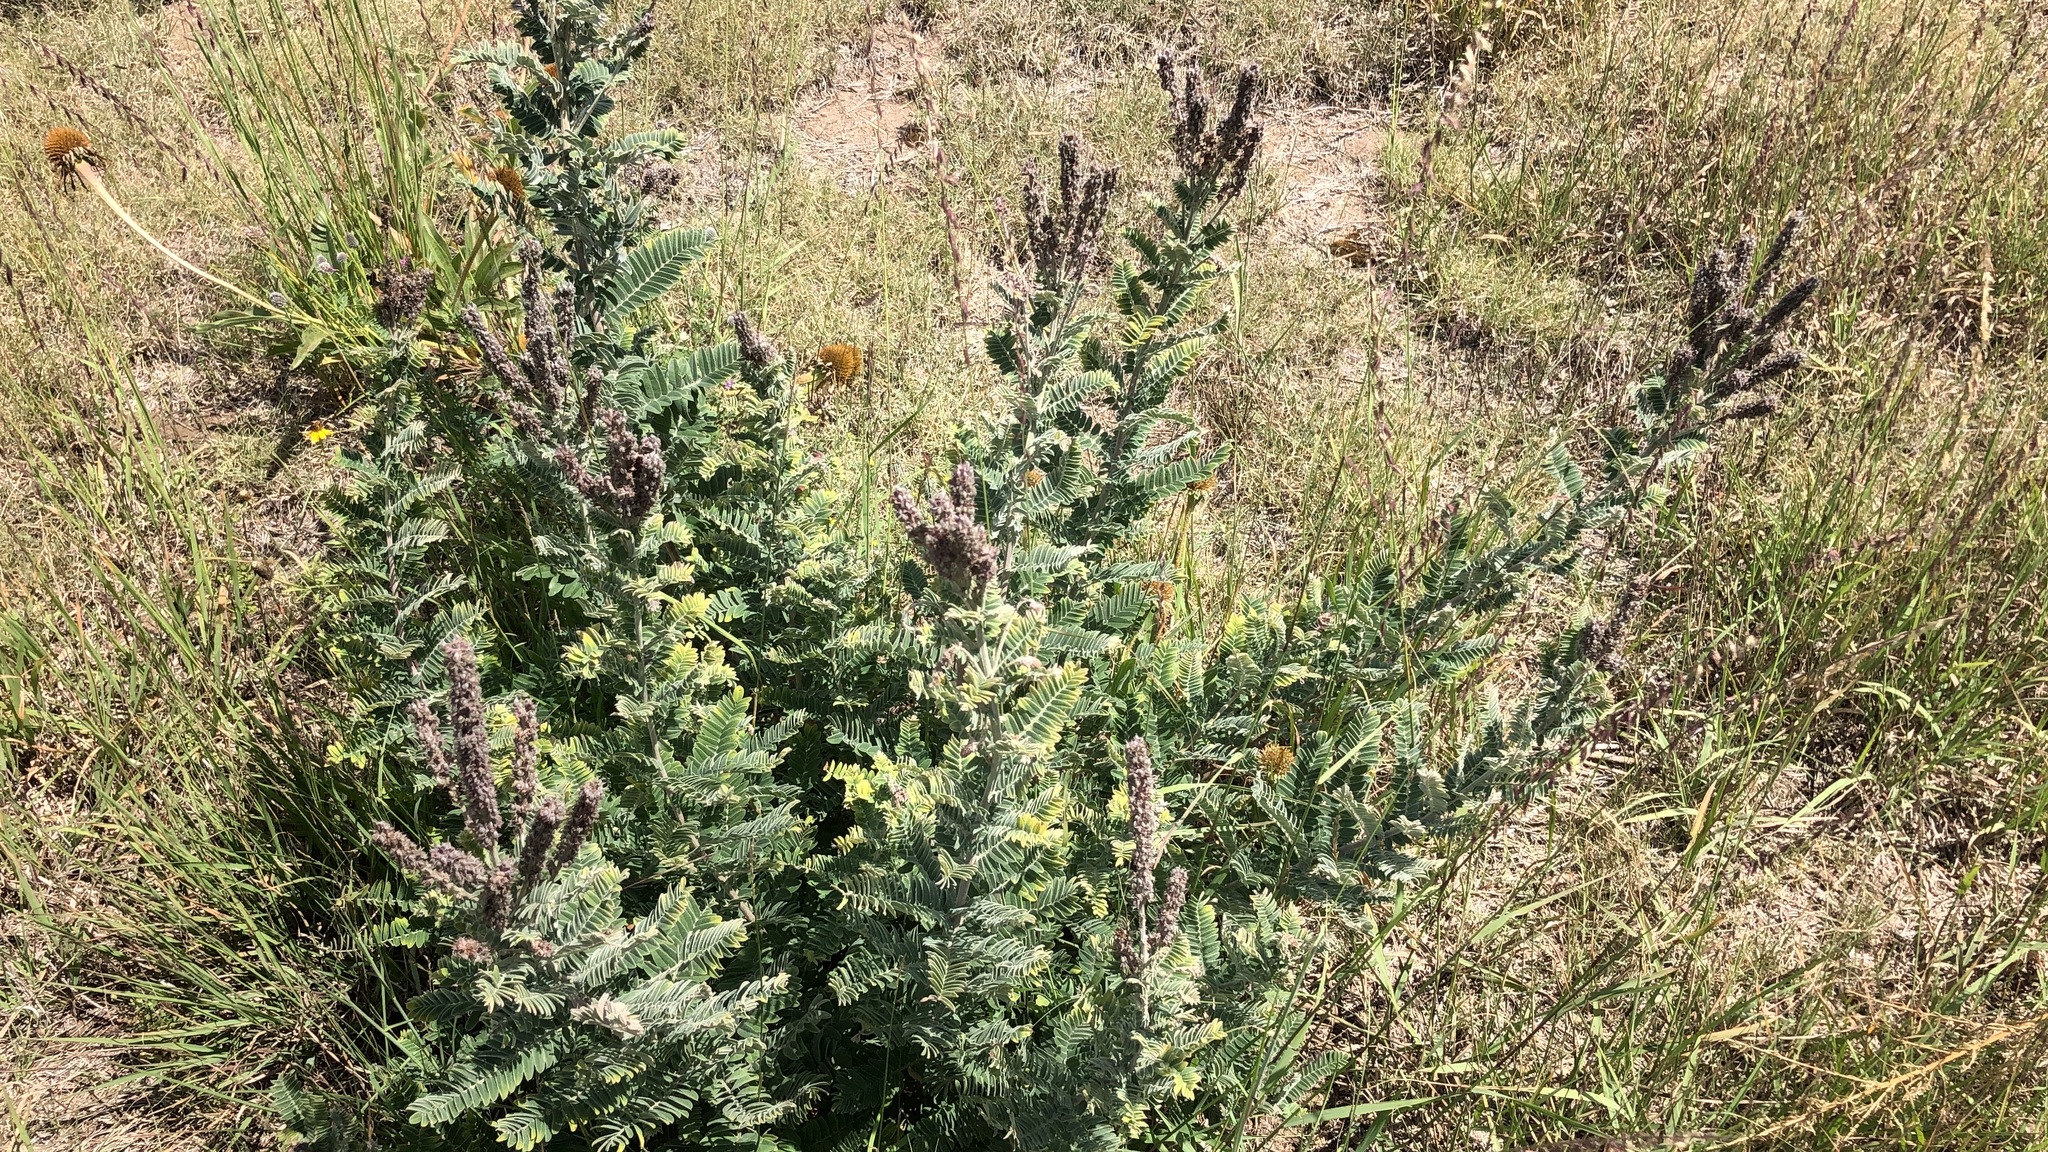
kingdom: Plantae
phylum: Tracheophyta
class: Magnoliopsida
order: Fabales
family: Fabaceae
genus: Amorpha
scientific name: Amorpha canescens
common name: Leadplant
